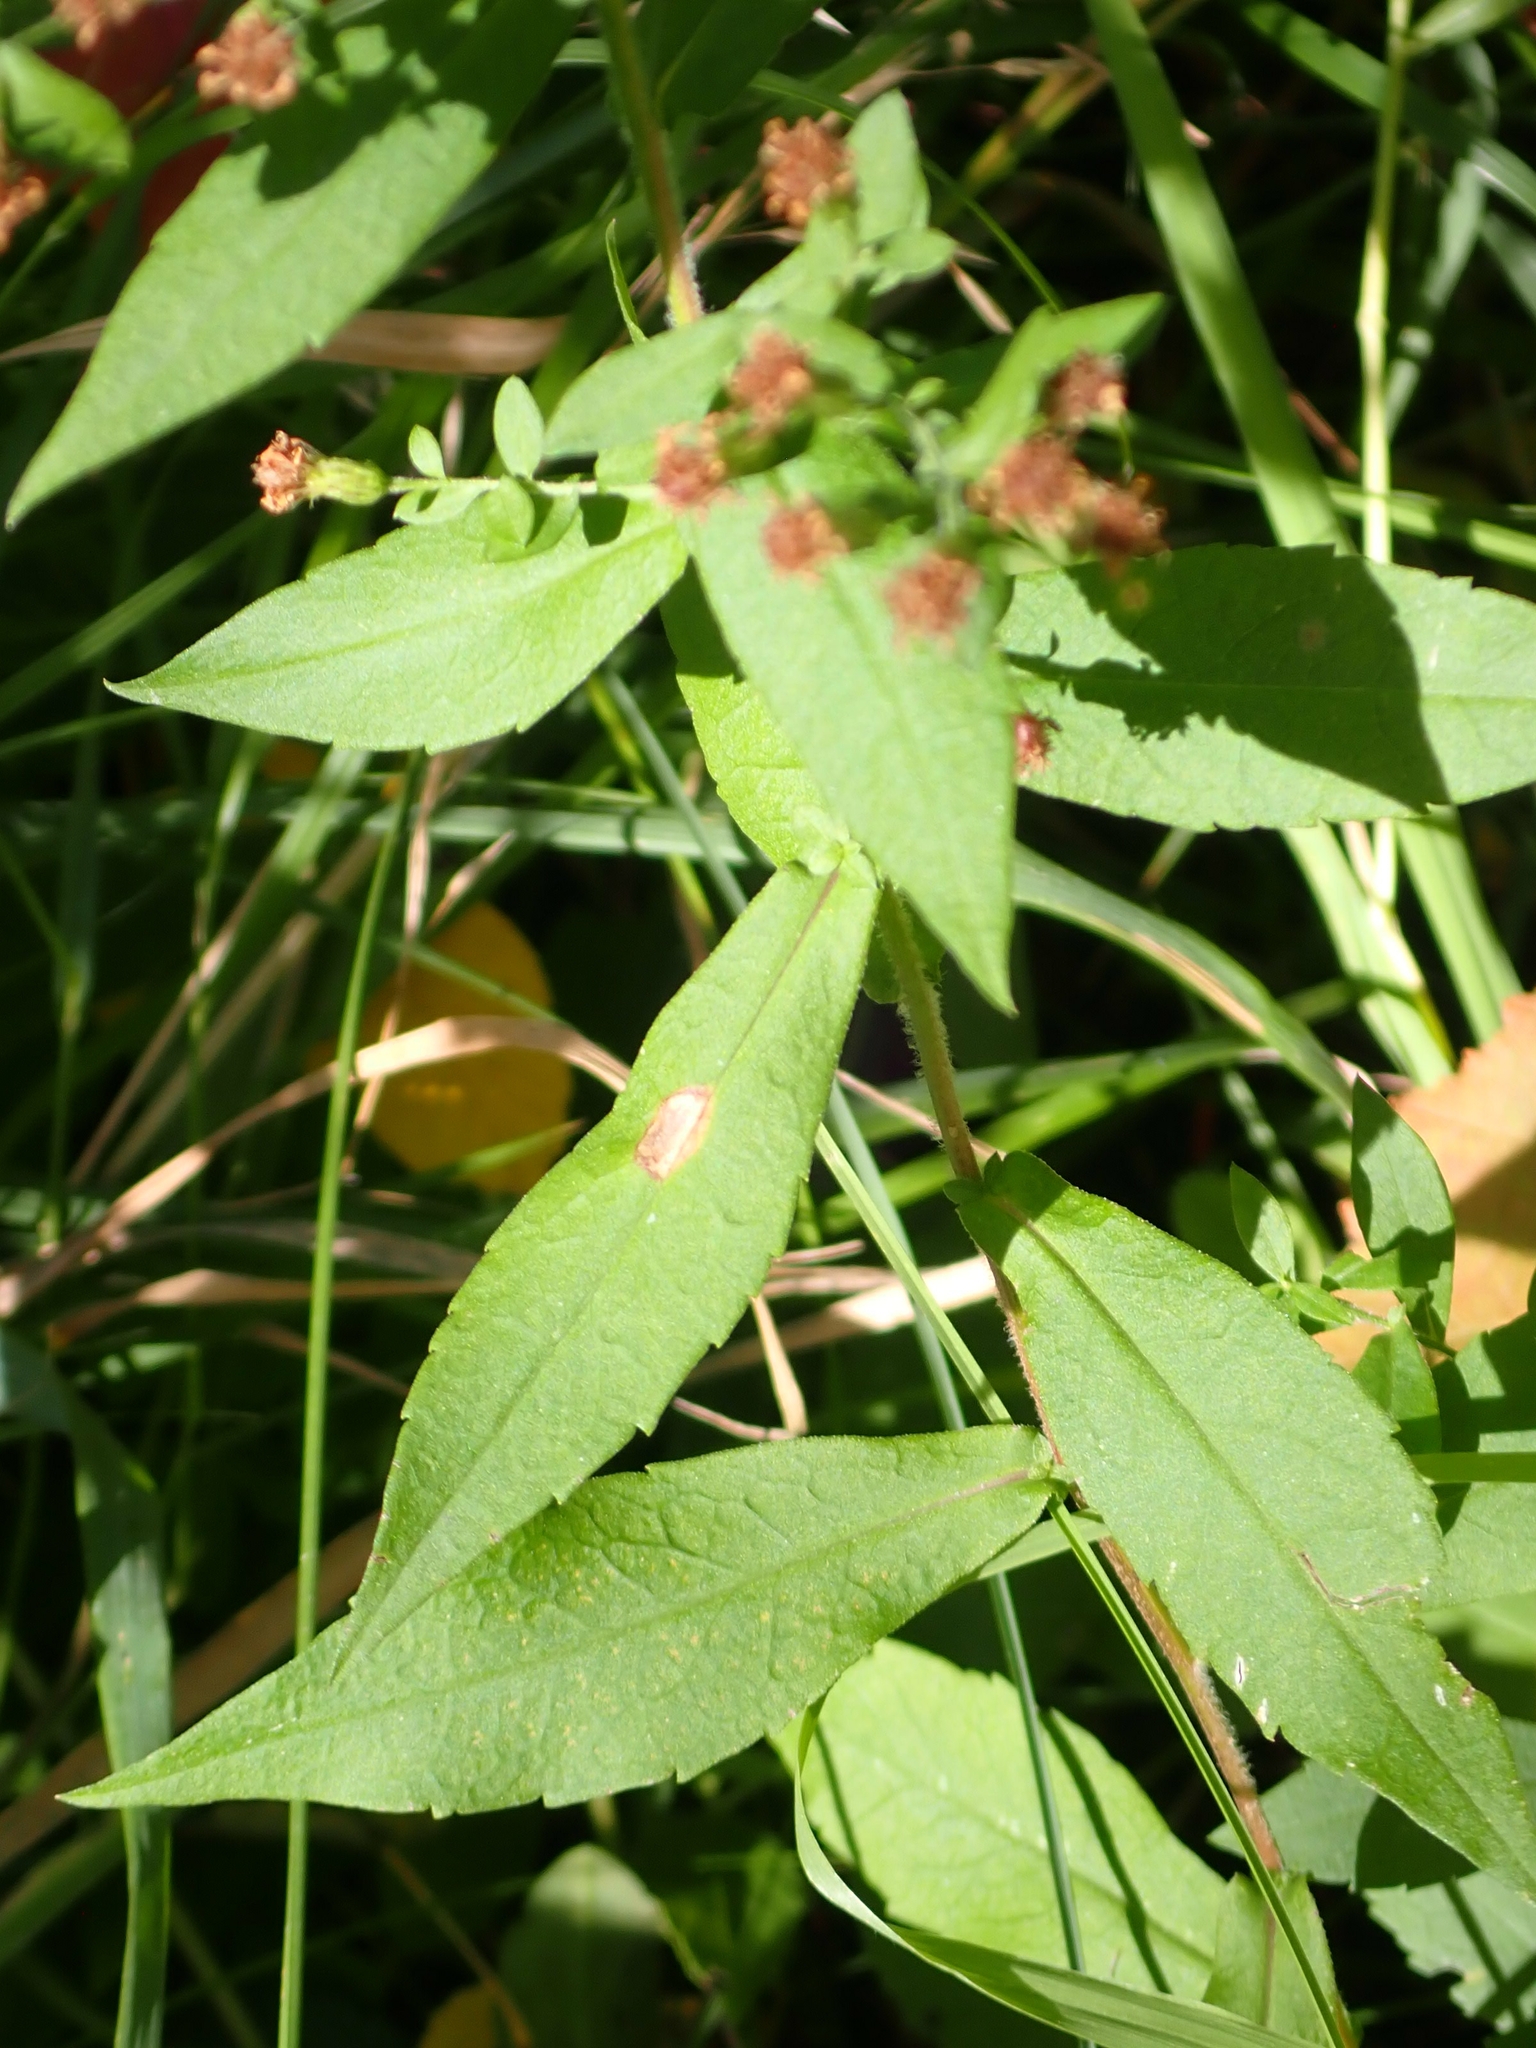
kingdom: Plantae
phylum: Tracheophyta
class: Magnoliopsida
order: Asterales
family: Asteraceae
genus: Symphyotrichum
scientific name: Symphyotrichum lateriflorum
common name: Calico aster
